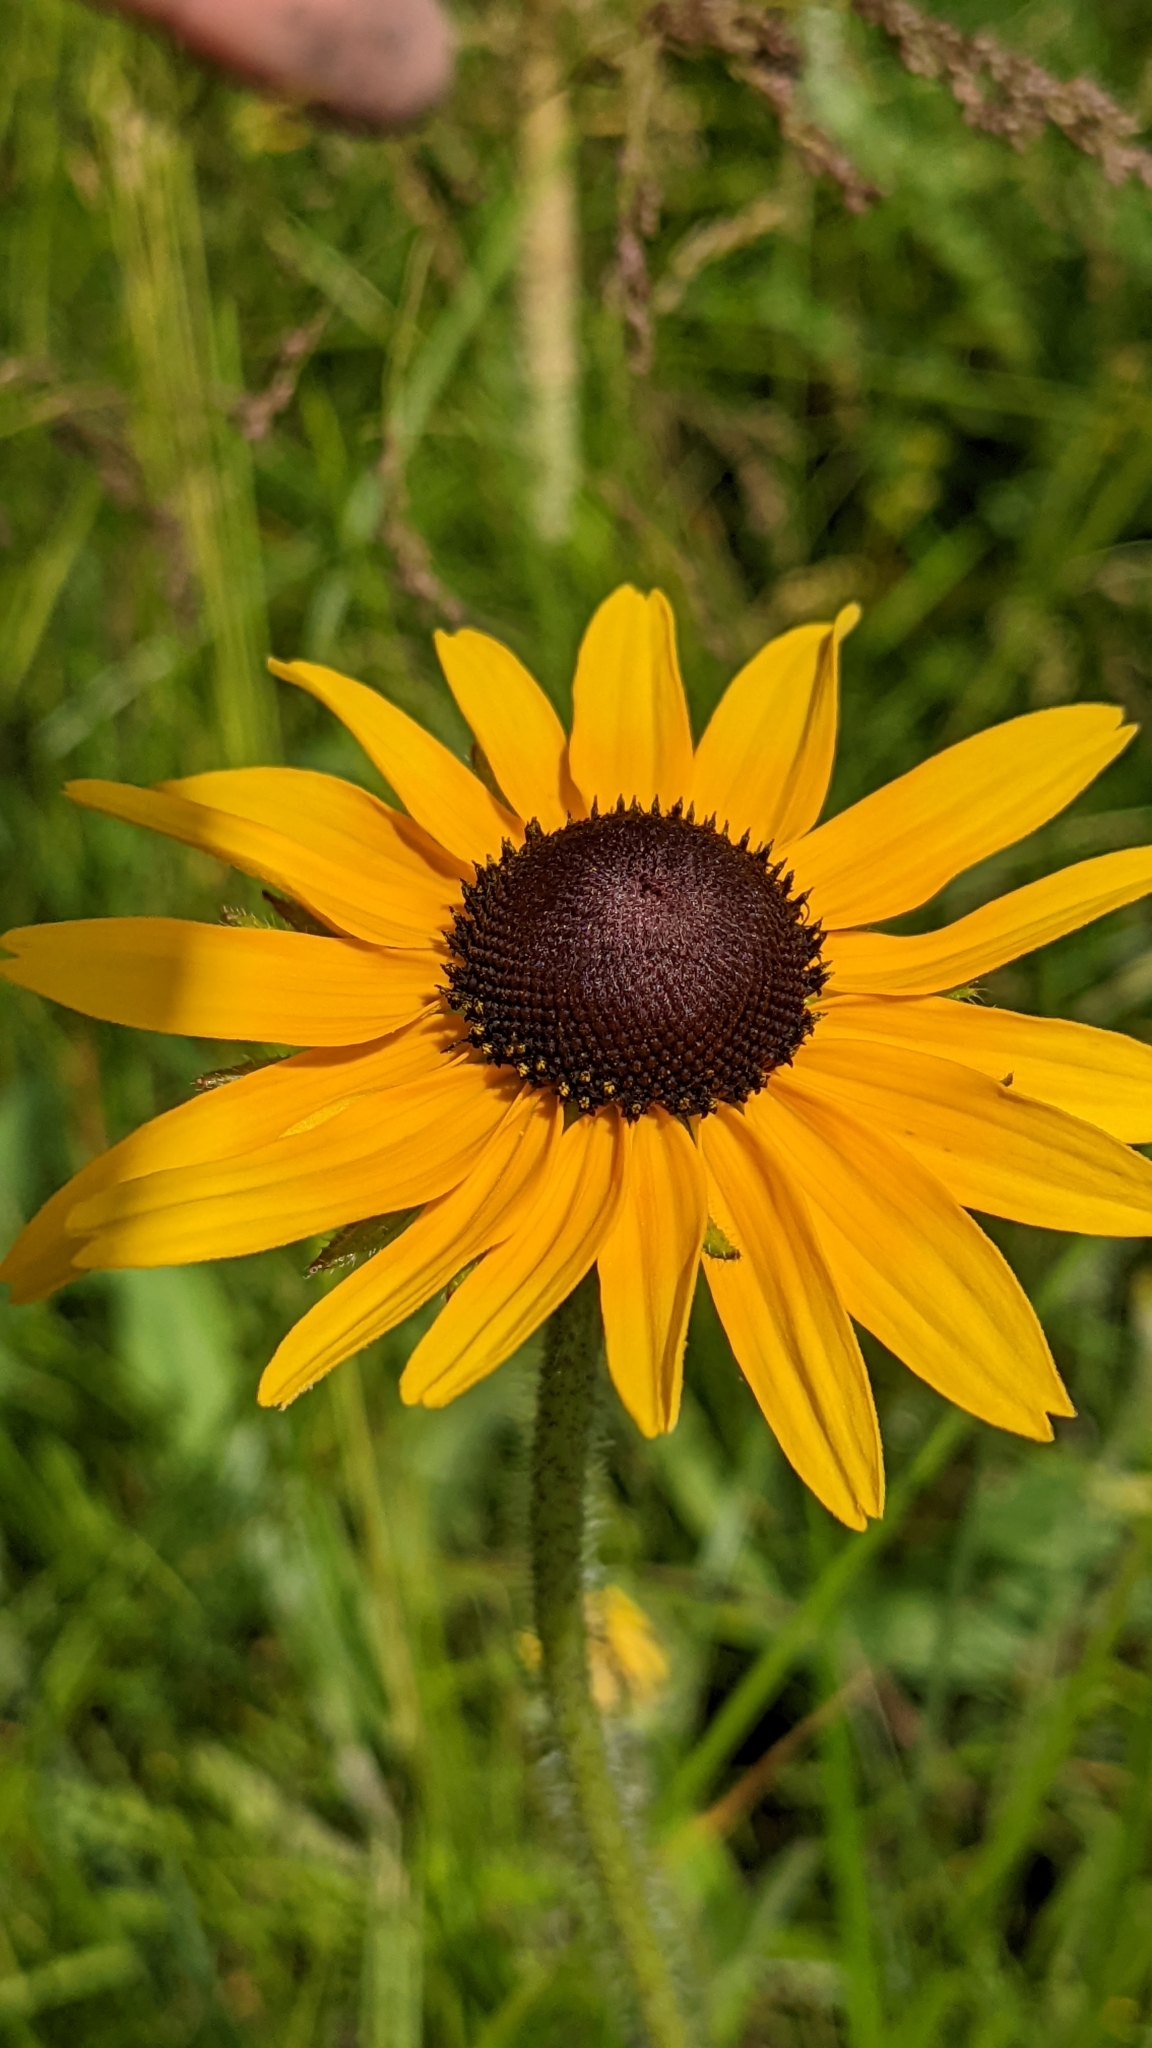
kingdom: Plantae
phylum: Tracheophyta
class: Magnoliopsida
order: Asterales
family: Asteraceae
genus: Rudbeckia
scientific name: Rudbeckia hirta
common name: Black-eyed-susan
